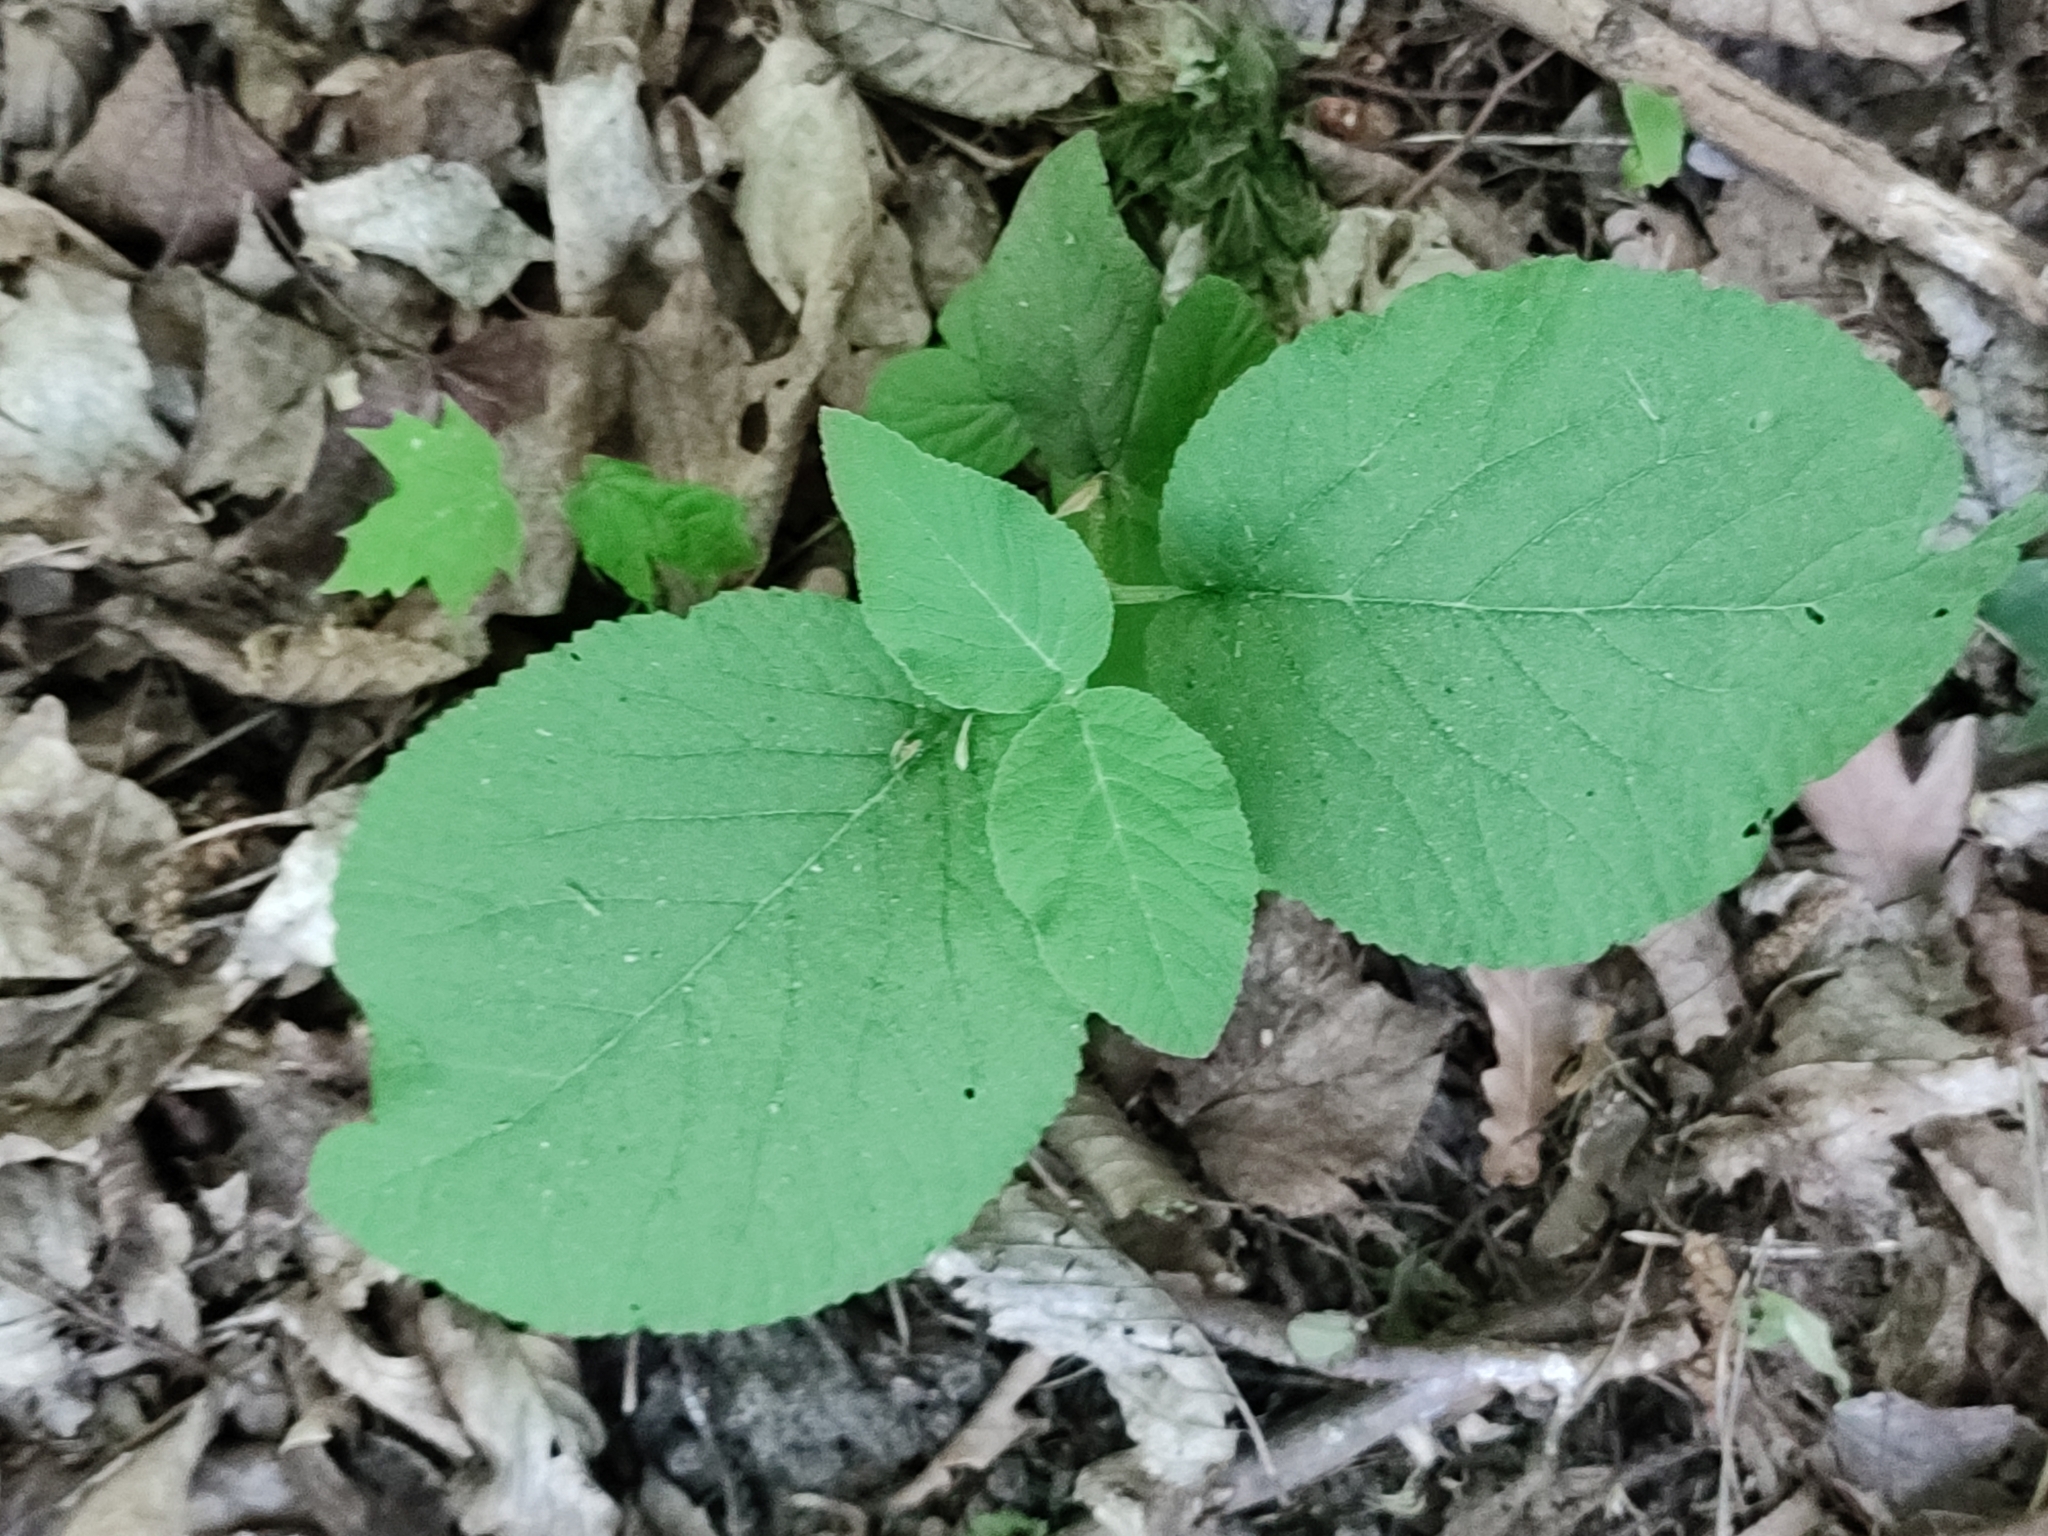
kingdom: Plantae
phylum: Tracheophyta
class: Magnoliopsida
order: Dipsacales
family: Viburnaceae
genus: Viburnum
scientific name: Viburnum lantana
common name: Wayfaring tree
